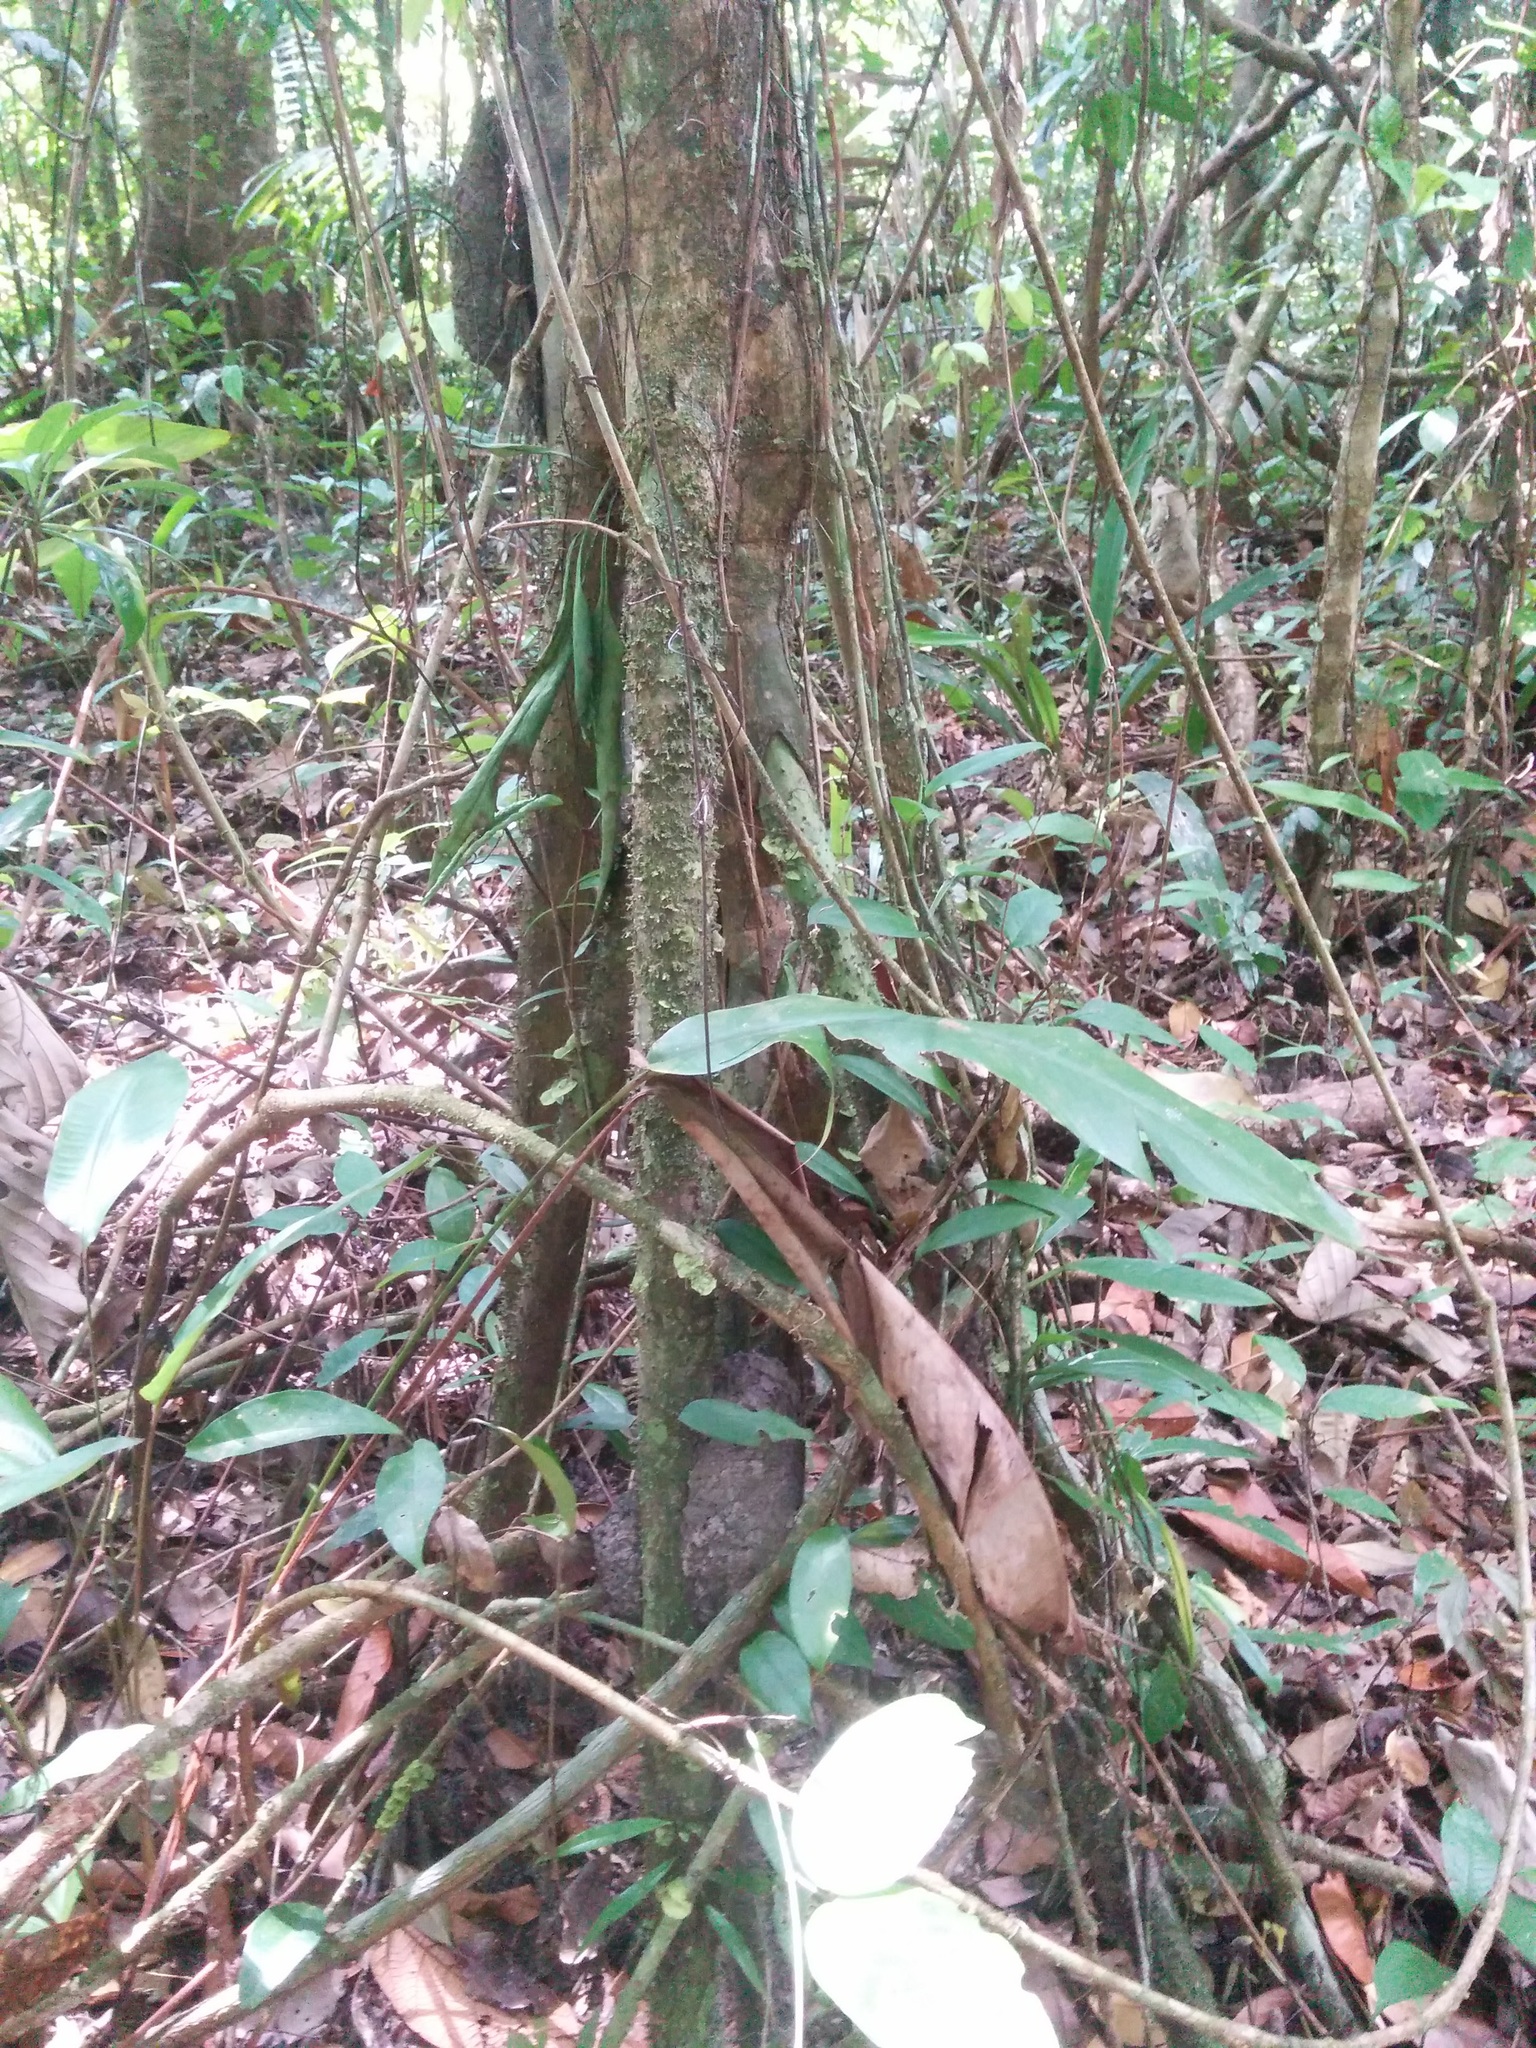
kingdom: Plantae
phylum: Tracheophyta
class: Liliopsida
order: Arecales
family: Arecaceae
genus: Socratea
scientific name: Socratea exorrhiza
